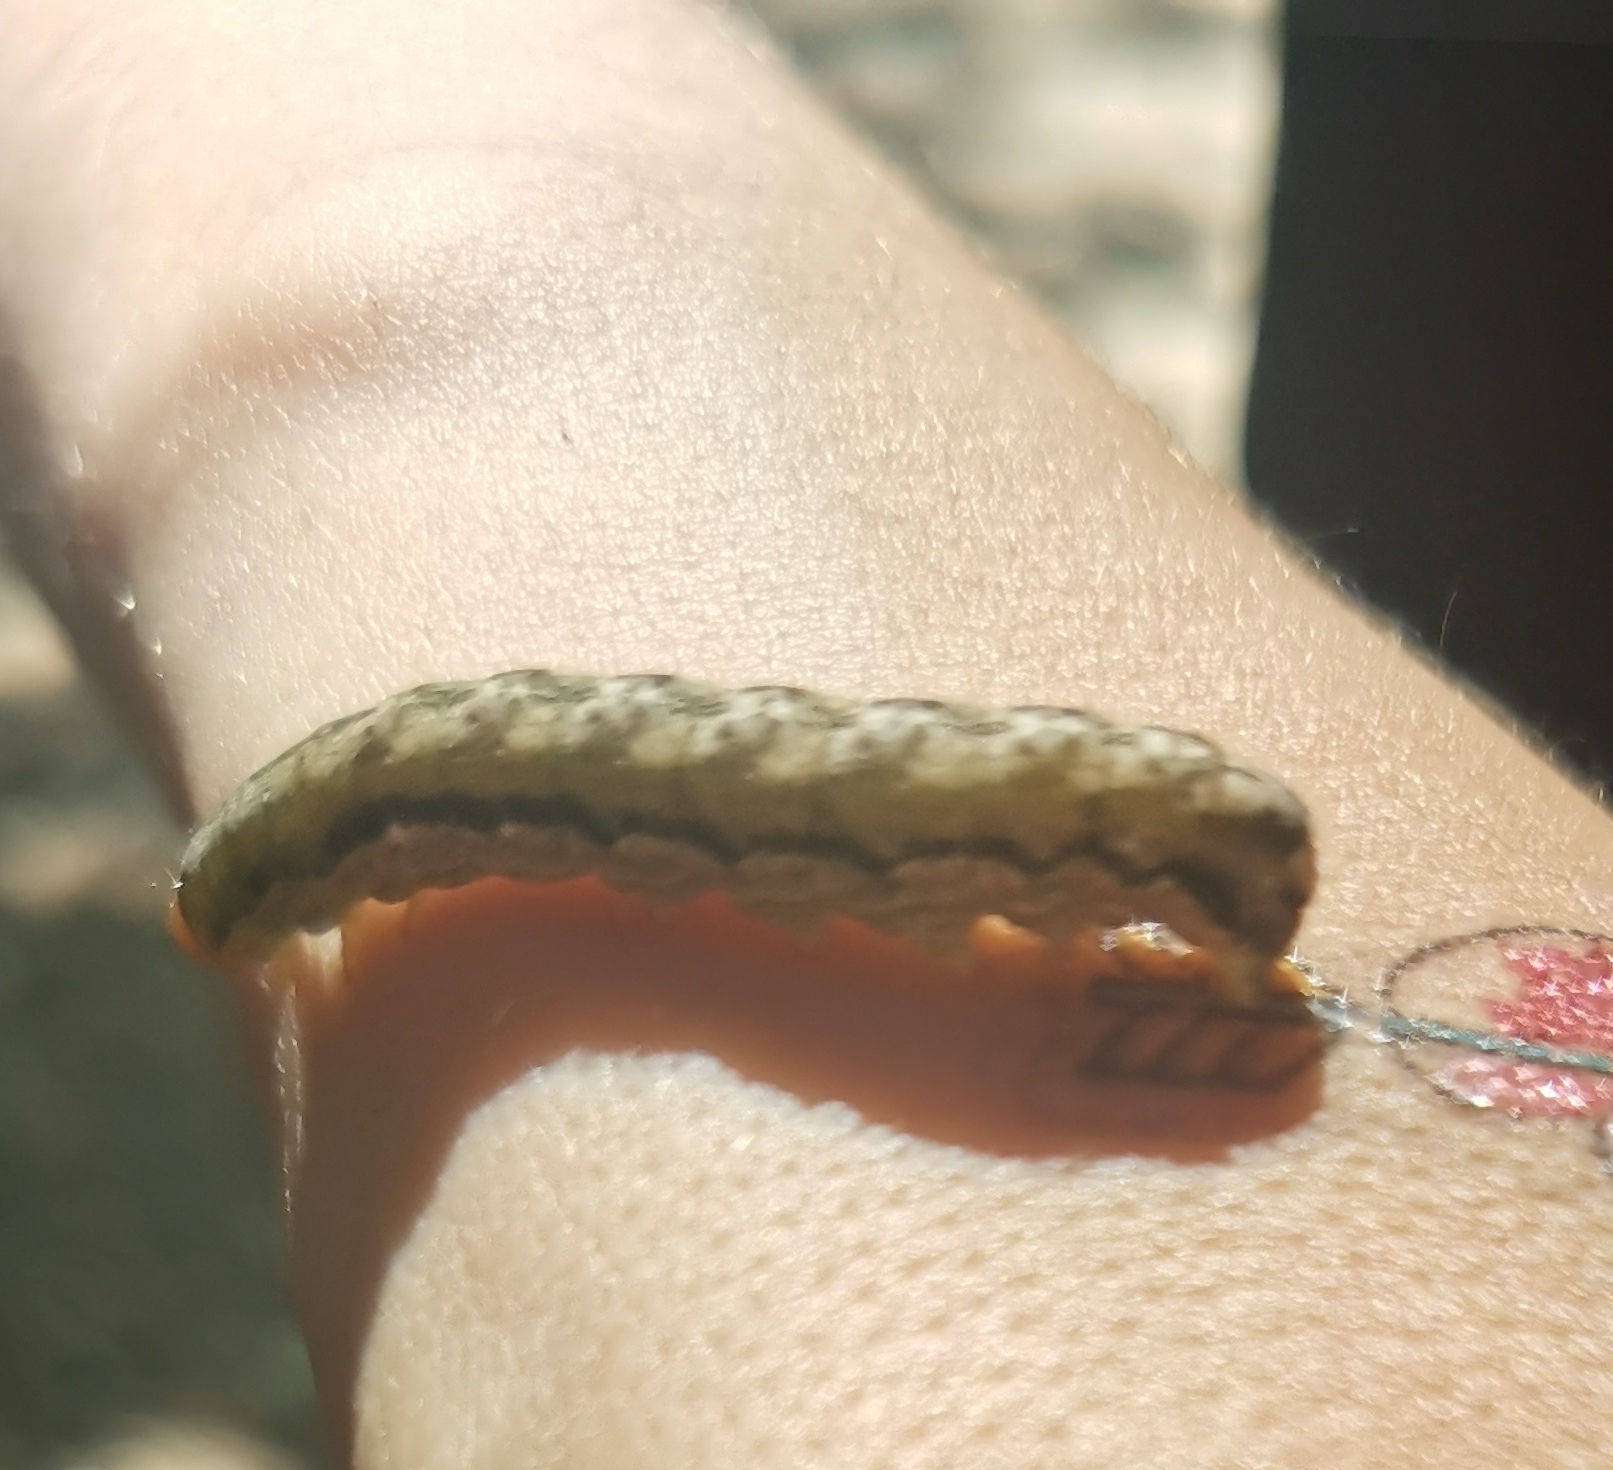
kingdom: Animalia
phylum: Arthropoda
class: Insecta
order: Lepidoptera
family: Noctuidae
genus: Noctua
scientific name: Noctua comes
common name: Lesser yellow underwing
